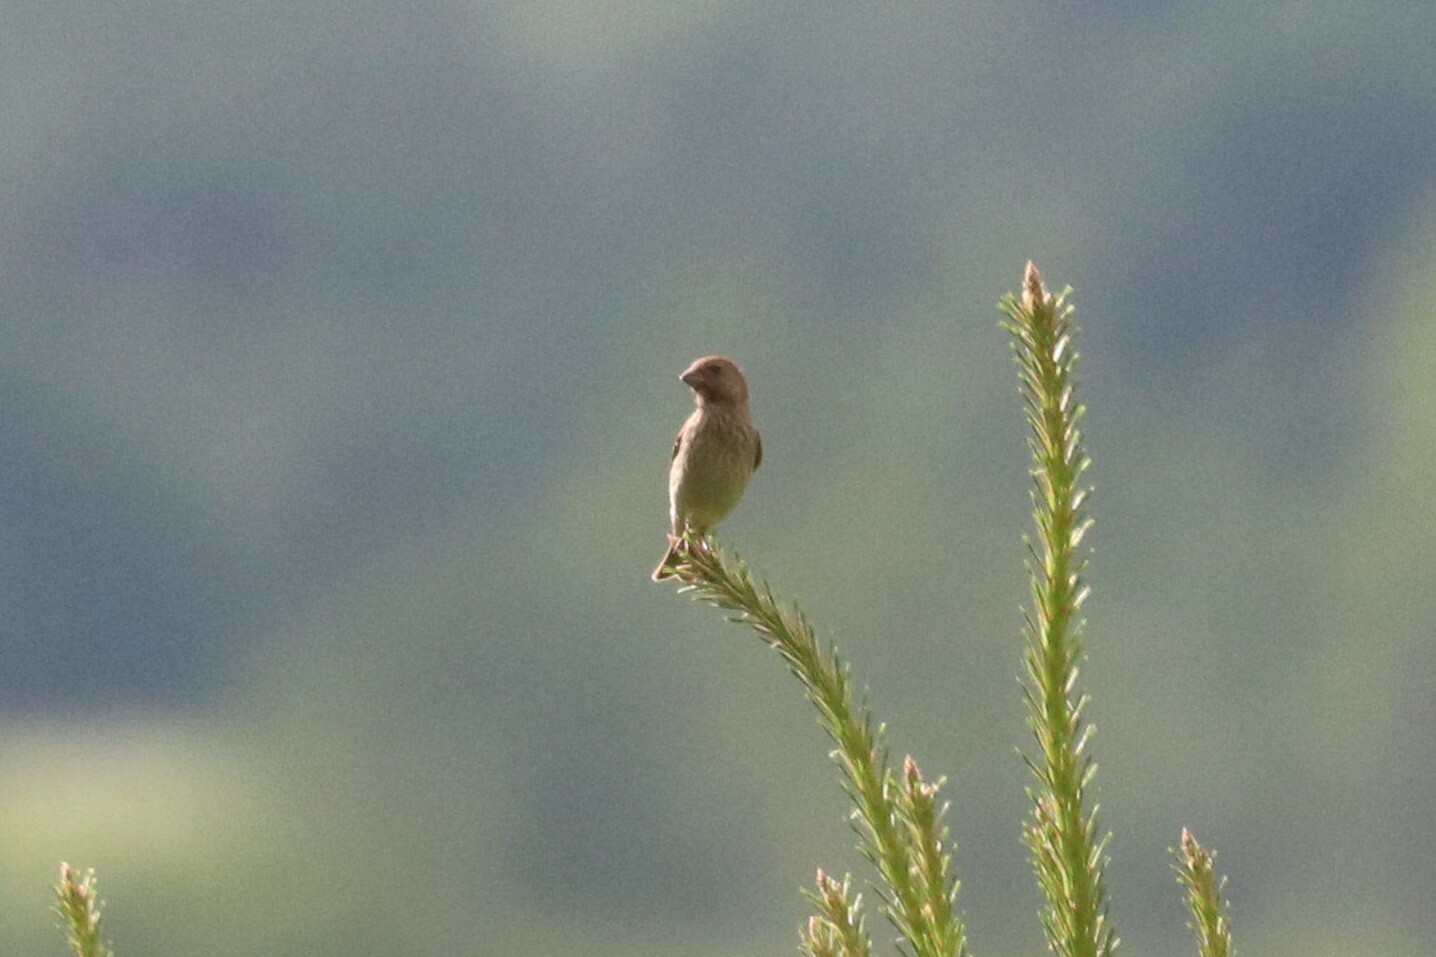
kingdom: Animalia
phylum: Chordata
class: Aves
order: Passeriformes
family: Fringillidae
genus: Carpodacus
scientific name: Carpodacus erythrinus
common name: Common rosefinch
